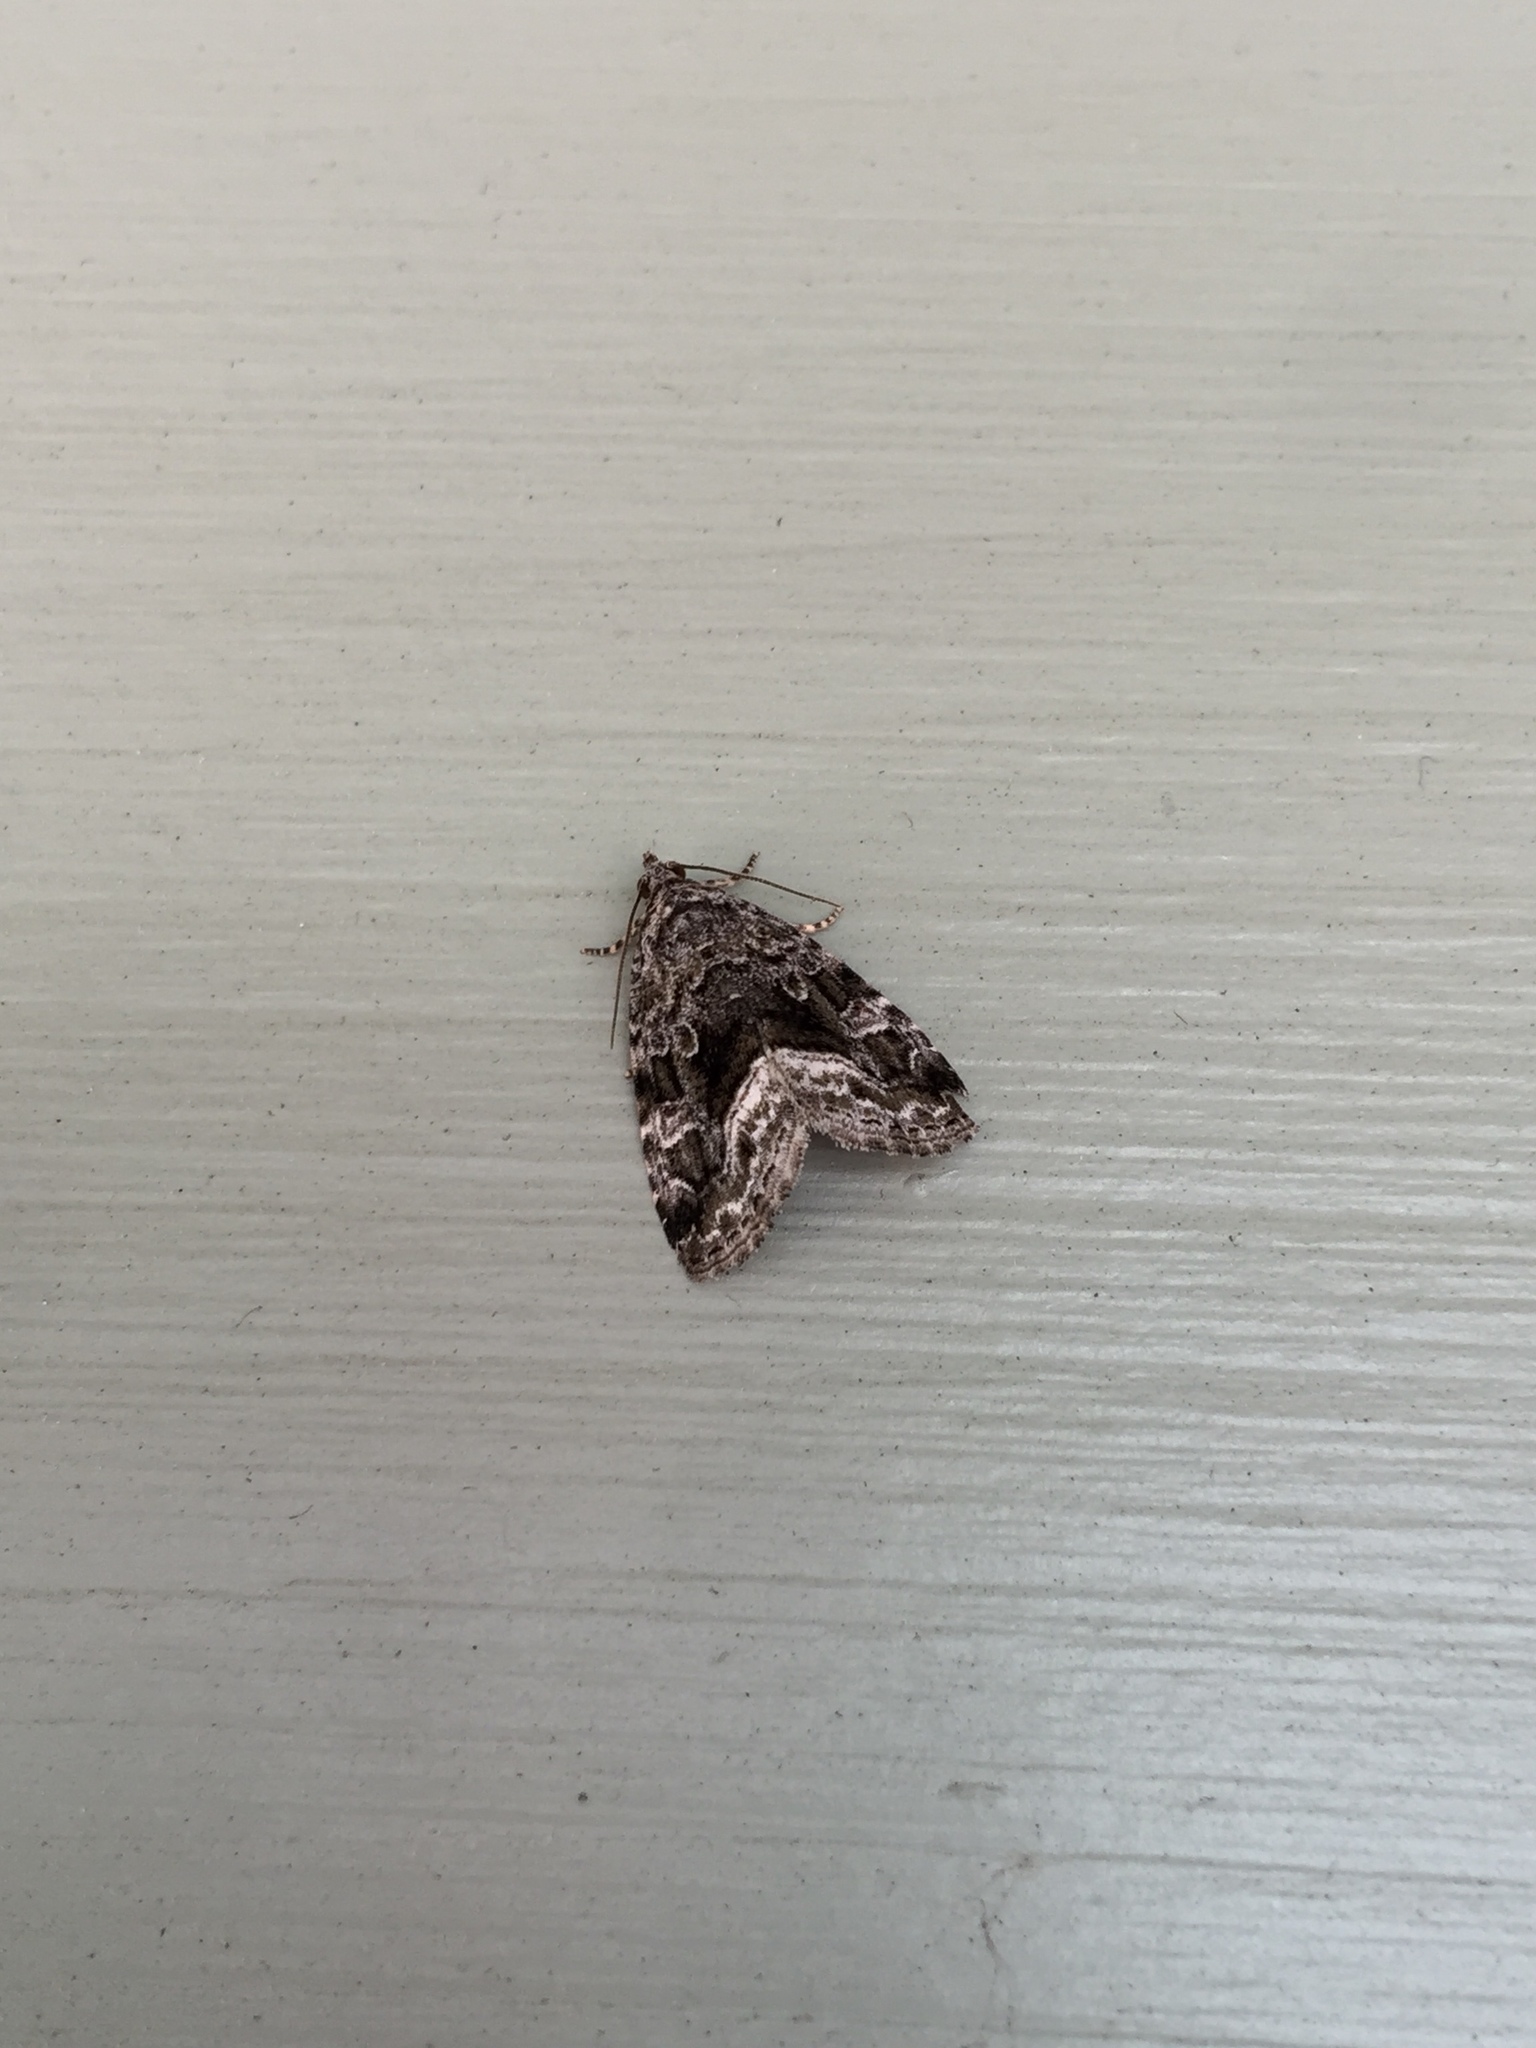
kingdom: Animalia
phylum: Arthropoda
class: Insecta
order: Lepidoptera
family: Noctuidae
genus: Protodeltote
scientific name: Protodeltote muscosula
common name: Large mossy glyph
